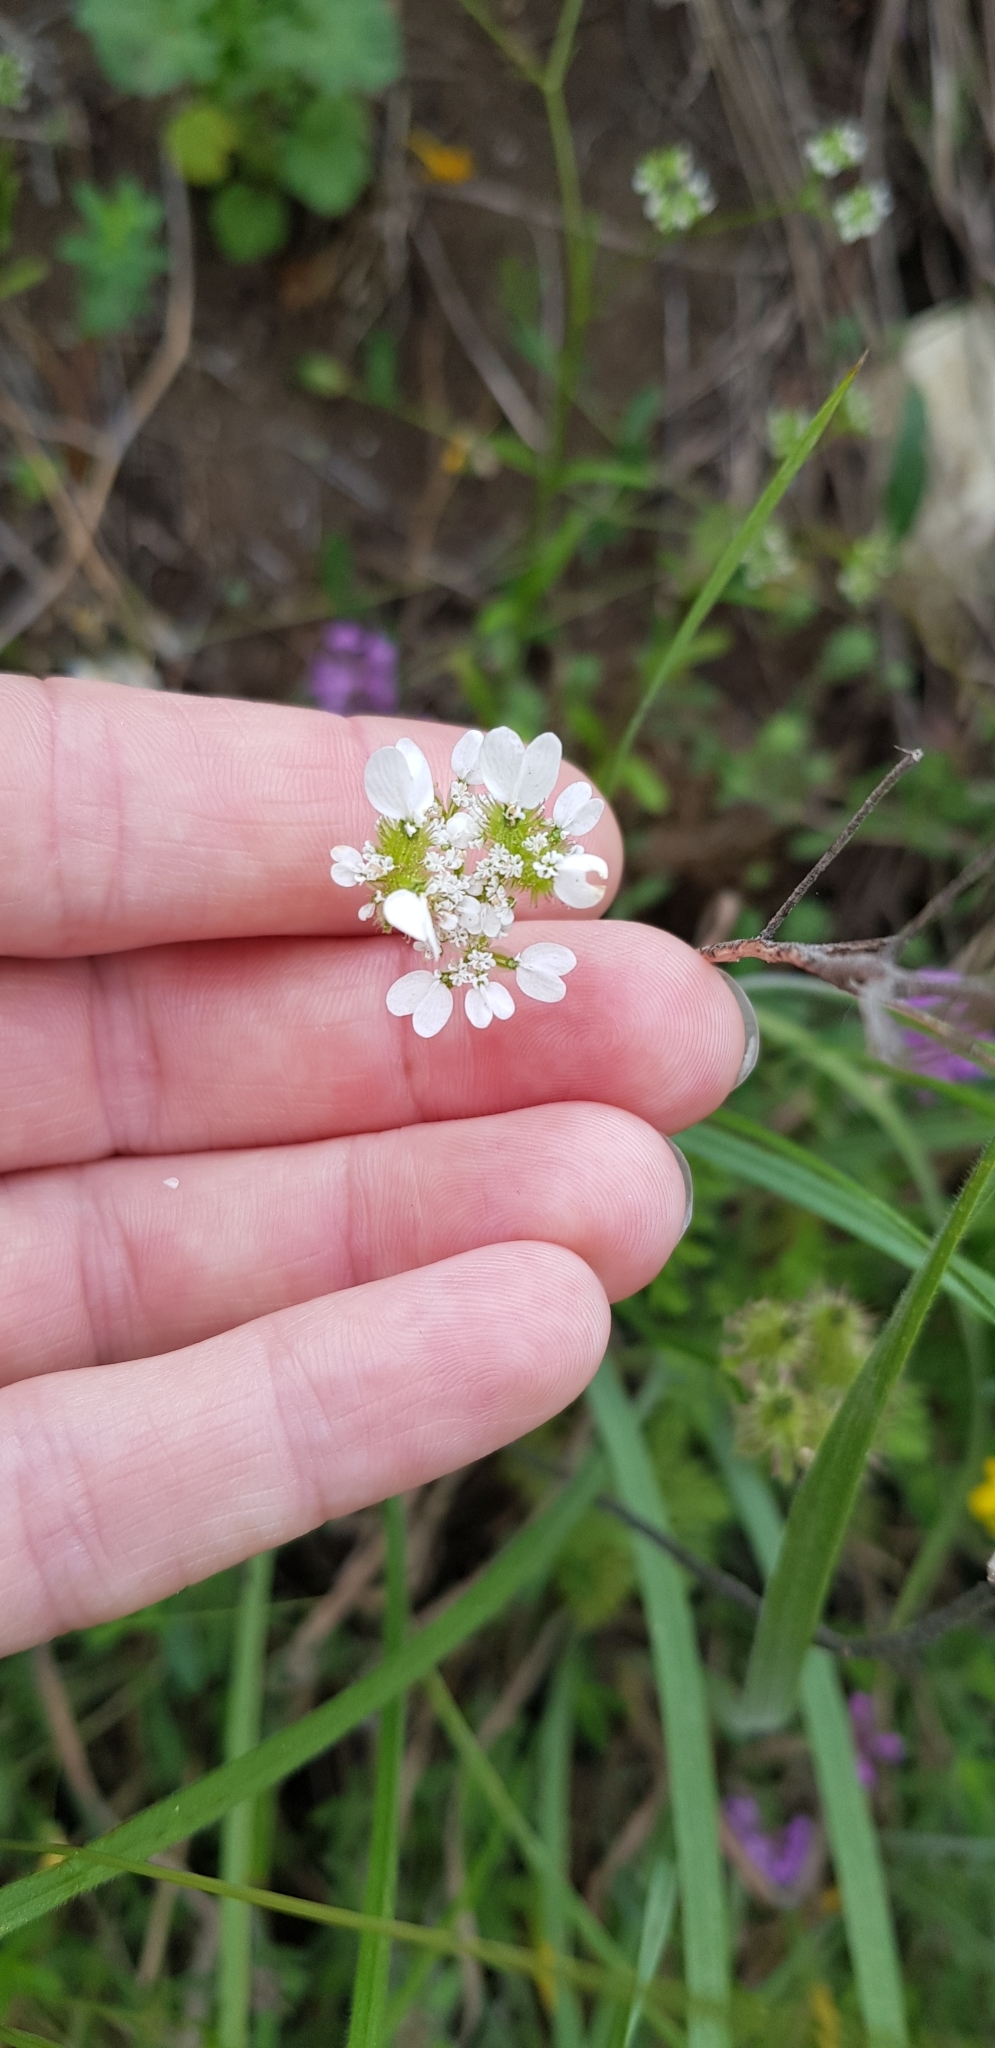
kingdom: Plantae
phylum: Tracheophyta
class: Magnoliopsida
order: Apiales
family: Apiaceae
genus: Orlaya
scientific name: Orlaya daucoides
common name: Flat-fruit orlaya
